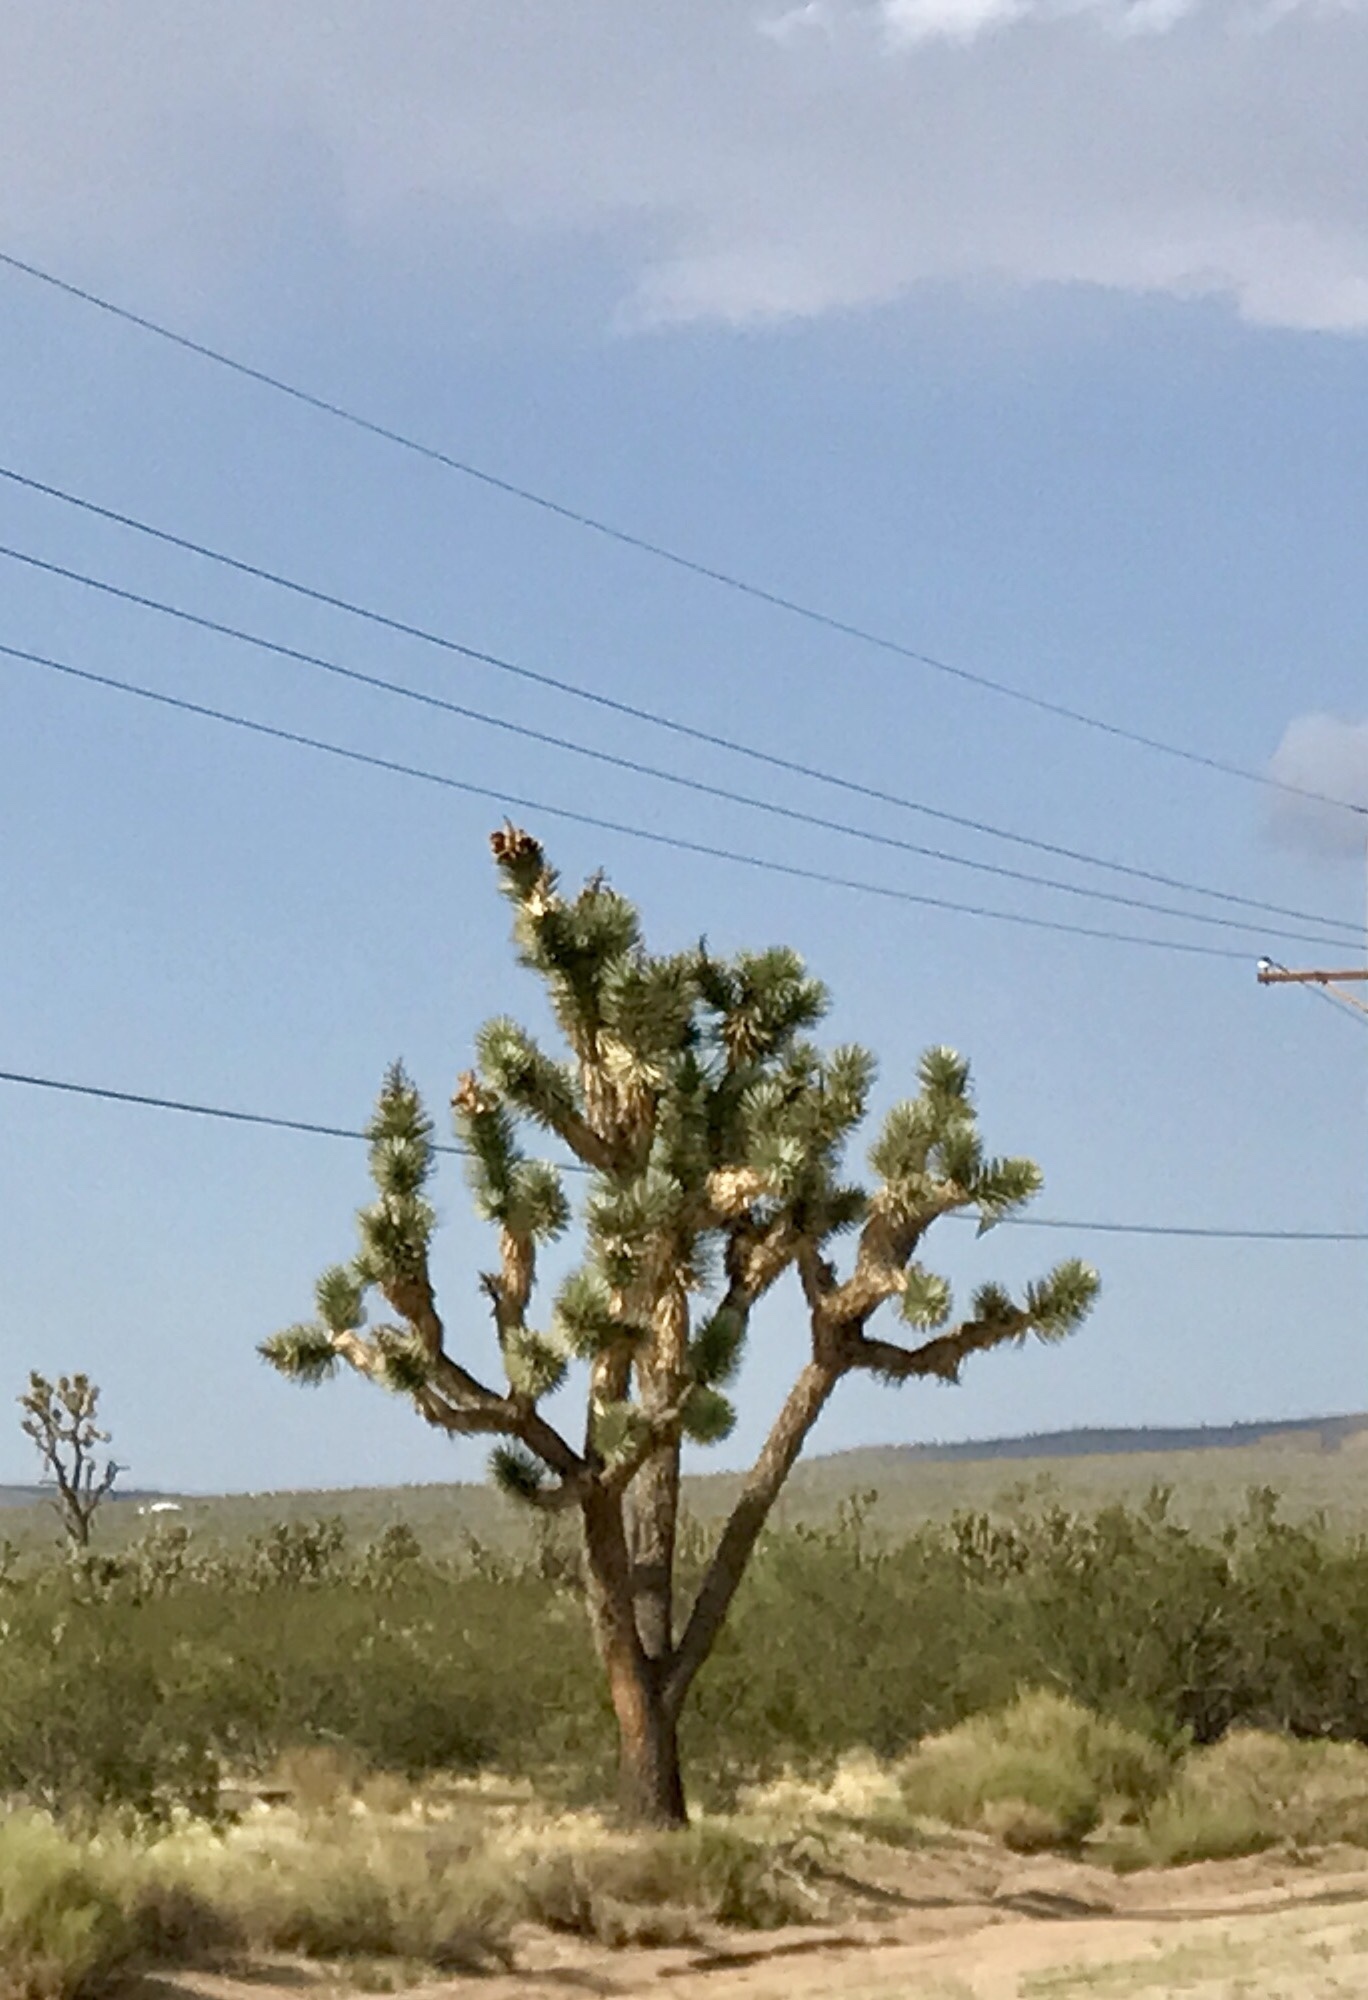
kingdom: Plantae
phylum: Tracheophyta
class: Liliopsida
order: Asparagales
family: Asparagaceae
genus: Yucca
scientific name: Yucca brevifolia
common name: Joshua tree
